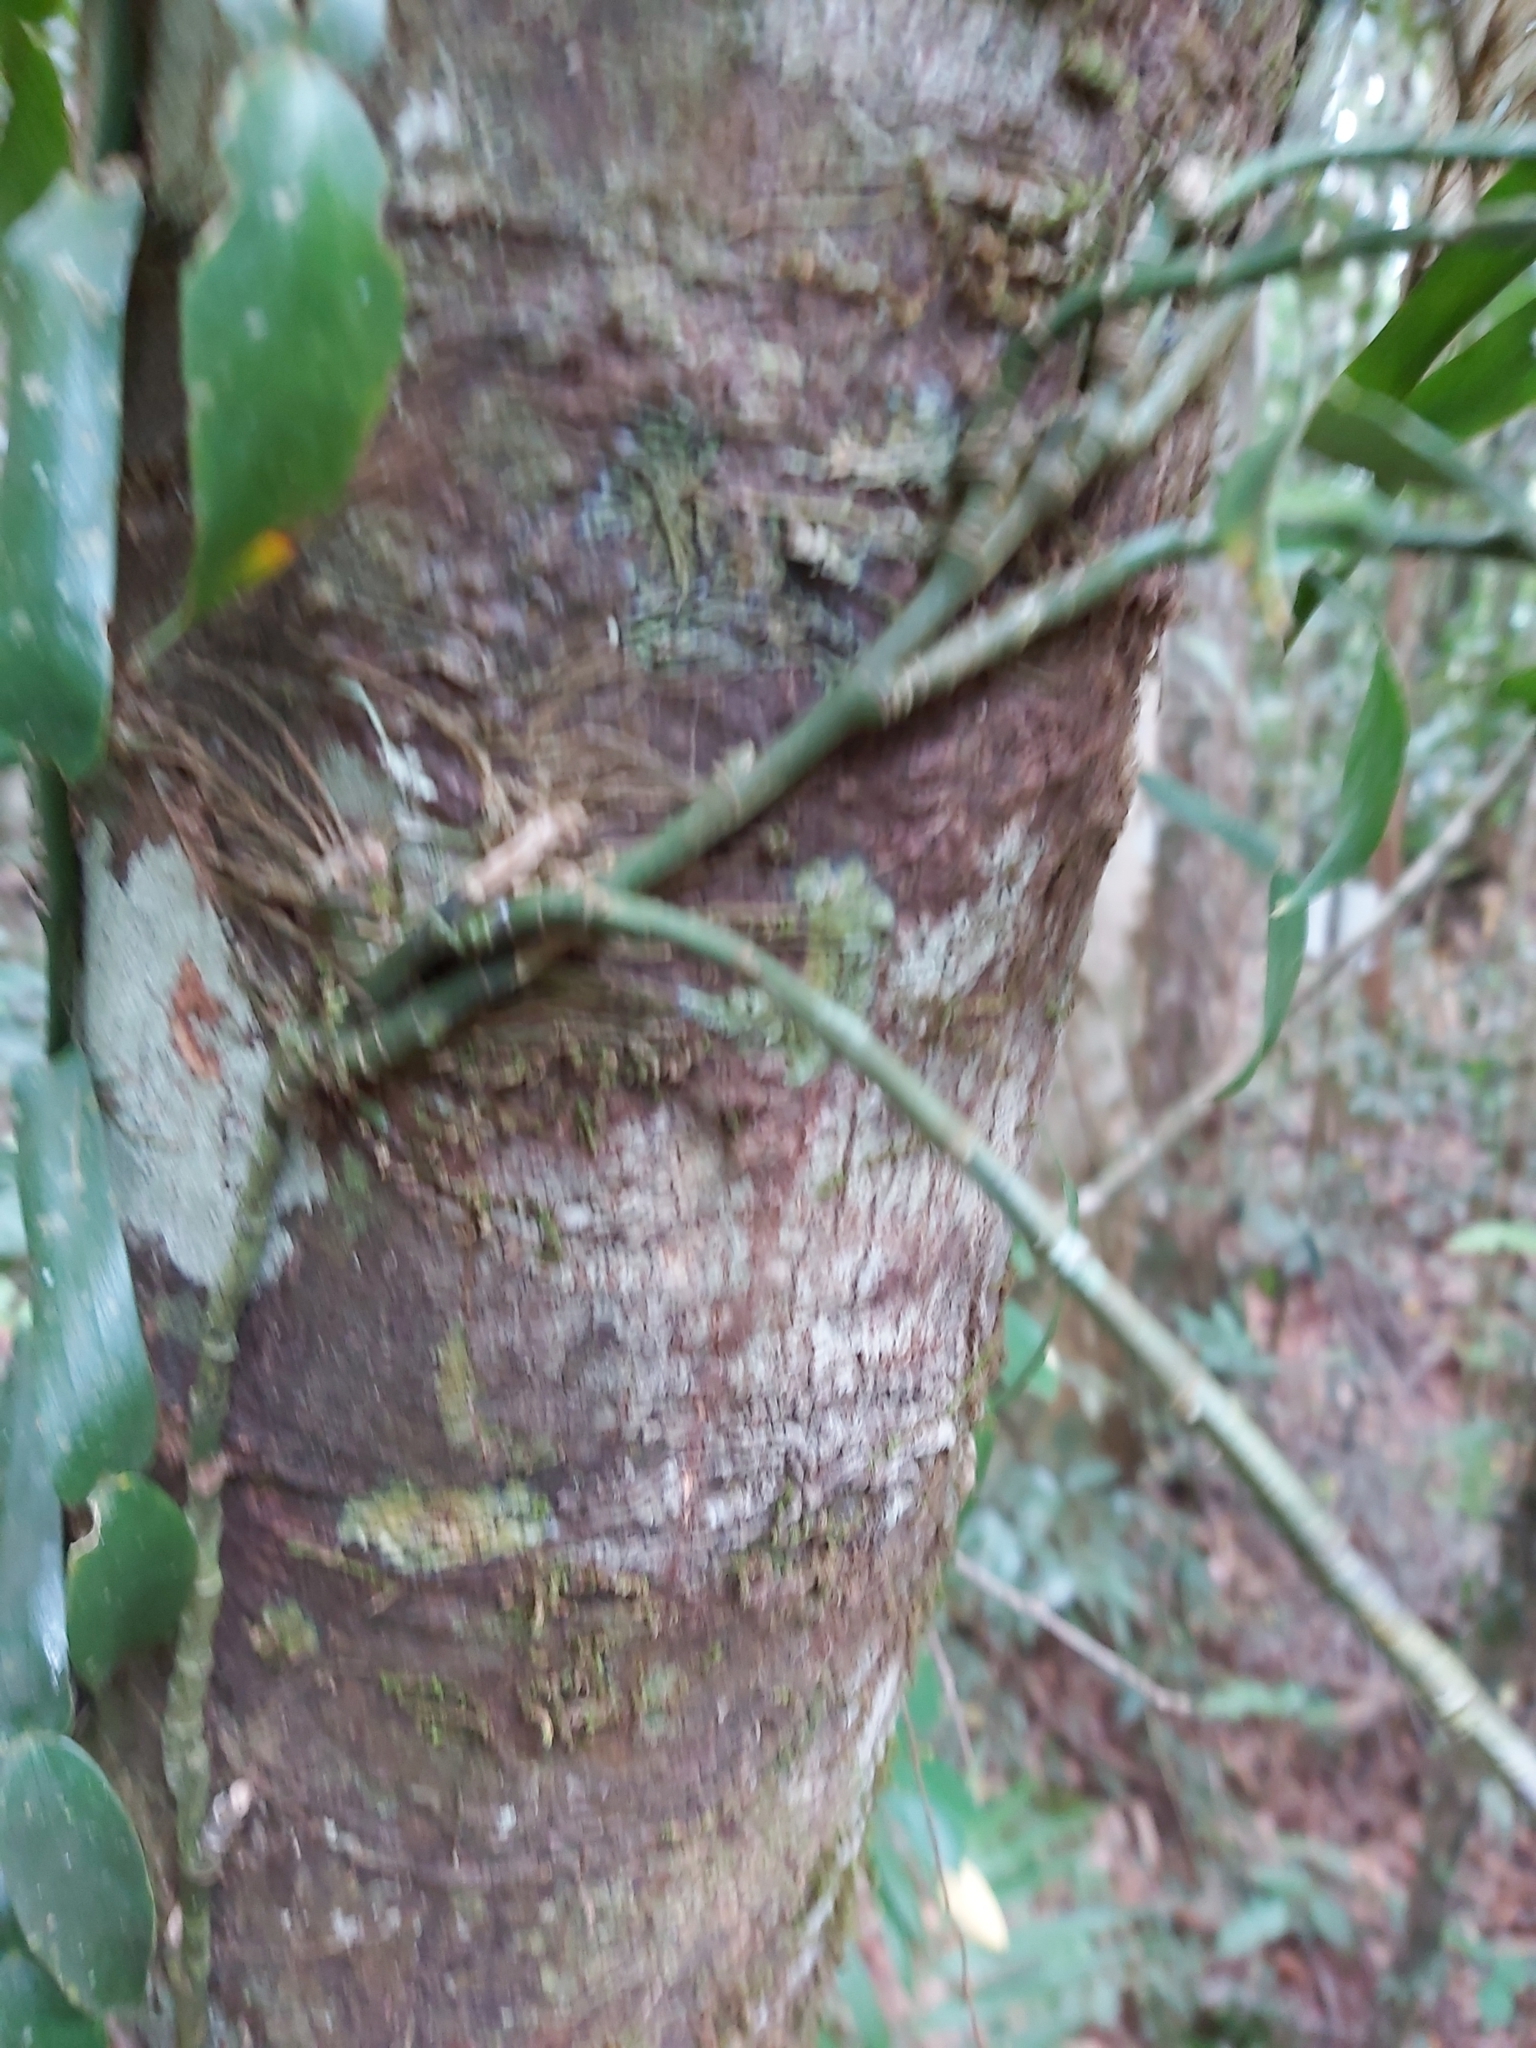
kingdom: Plantae
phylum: Tracheophyta
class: Liliopsida
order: Alismatales
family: Araceae
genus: Pothos
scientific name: Pothos longipes
